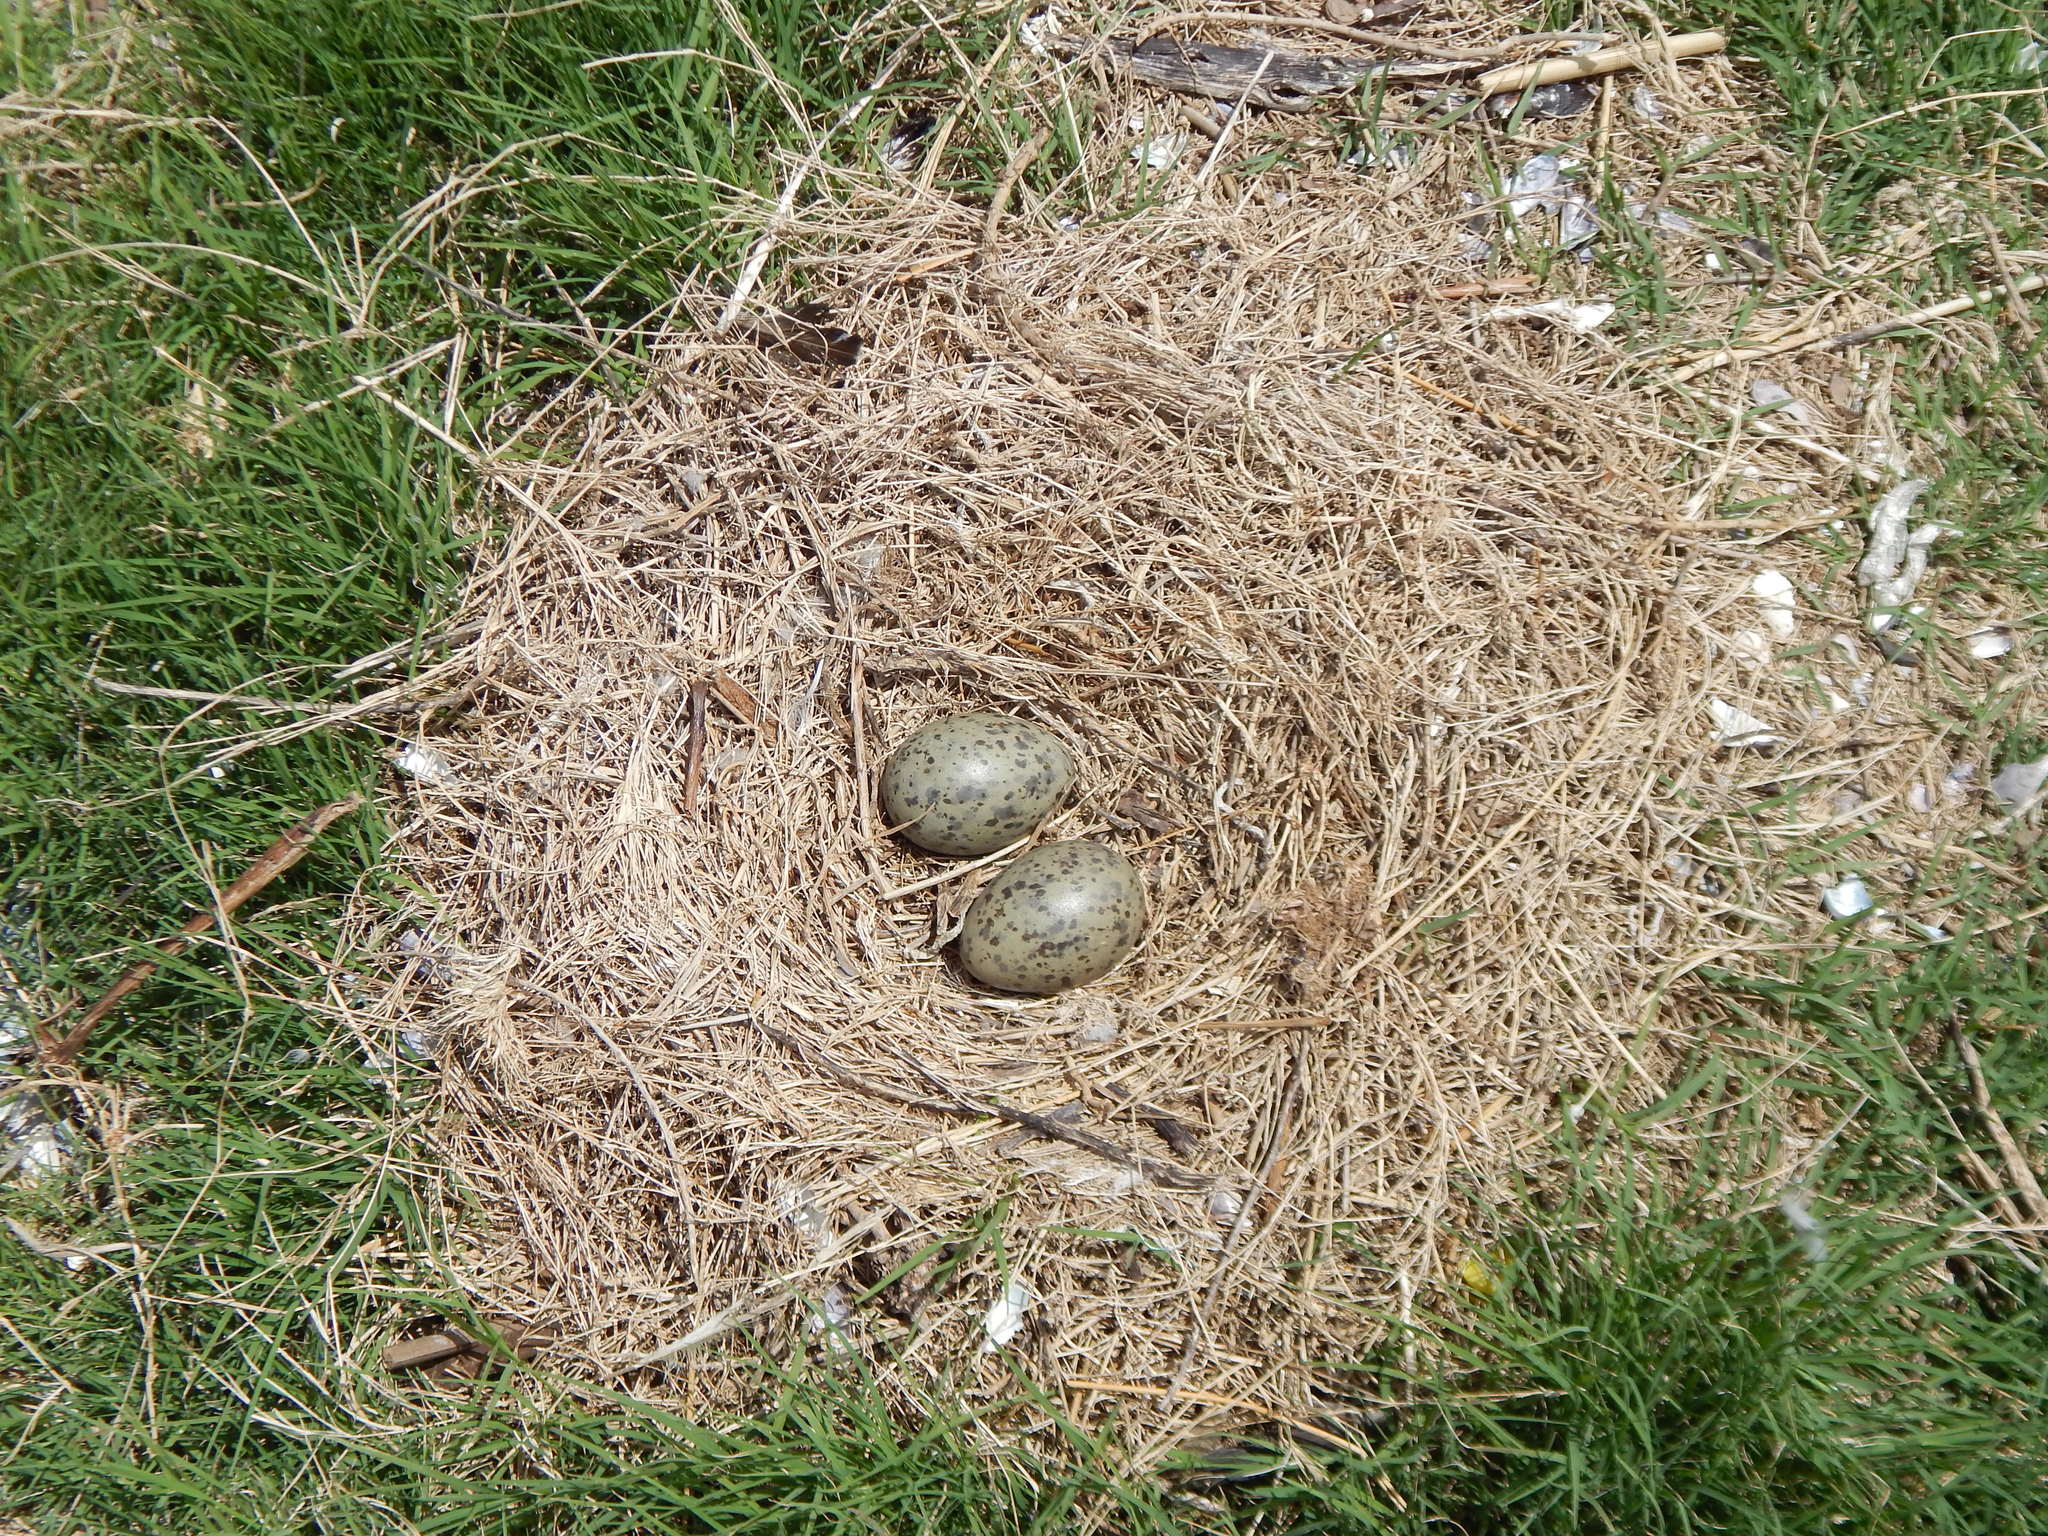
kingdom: Animalia
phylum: Chordata
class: Aves
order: Charadriiformes
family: Laridae
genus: Larus
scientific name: Larus dominicanus
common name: Kelp gull
